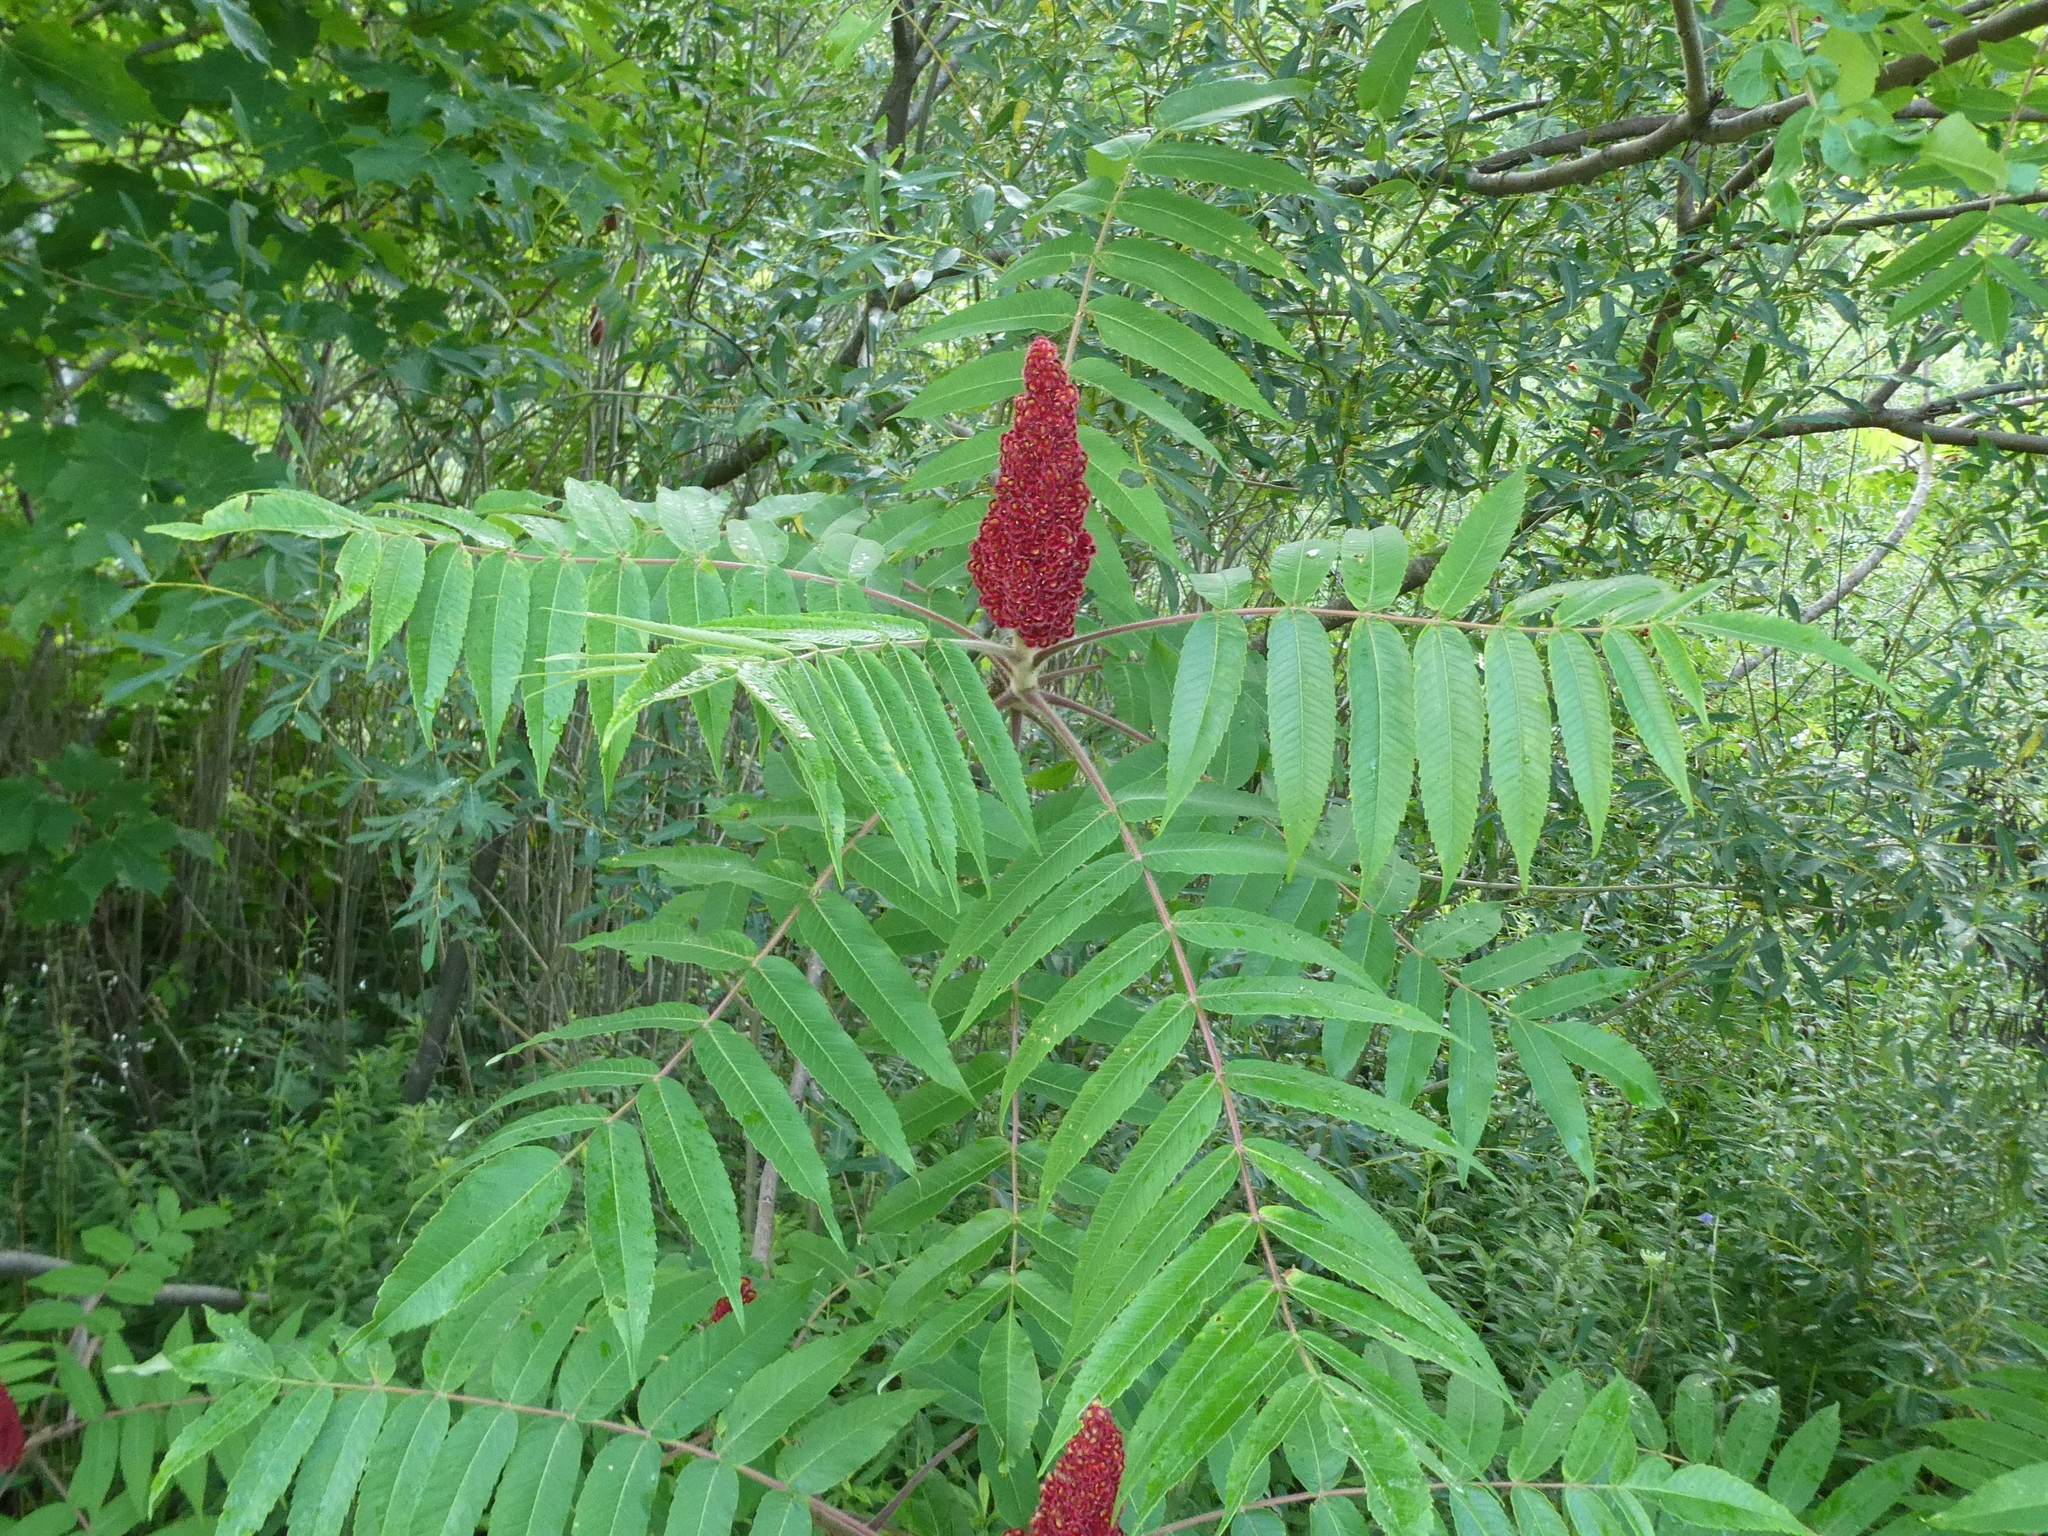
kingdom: Plantae
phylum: Tracheophyta
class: Magnoliopsida
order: Sapindales
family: Anacardiaceae
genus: Rhus
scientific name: Rhus typhina
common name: Staghorn sumac
